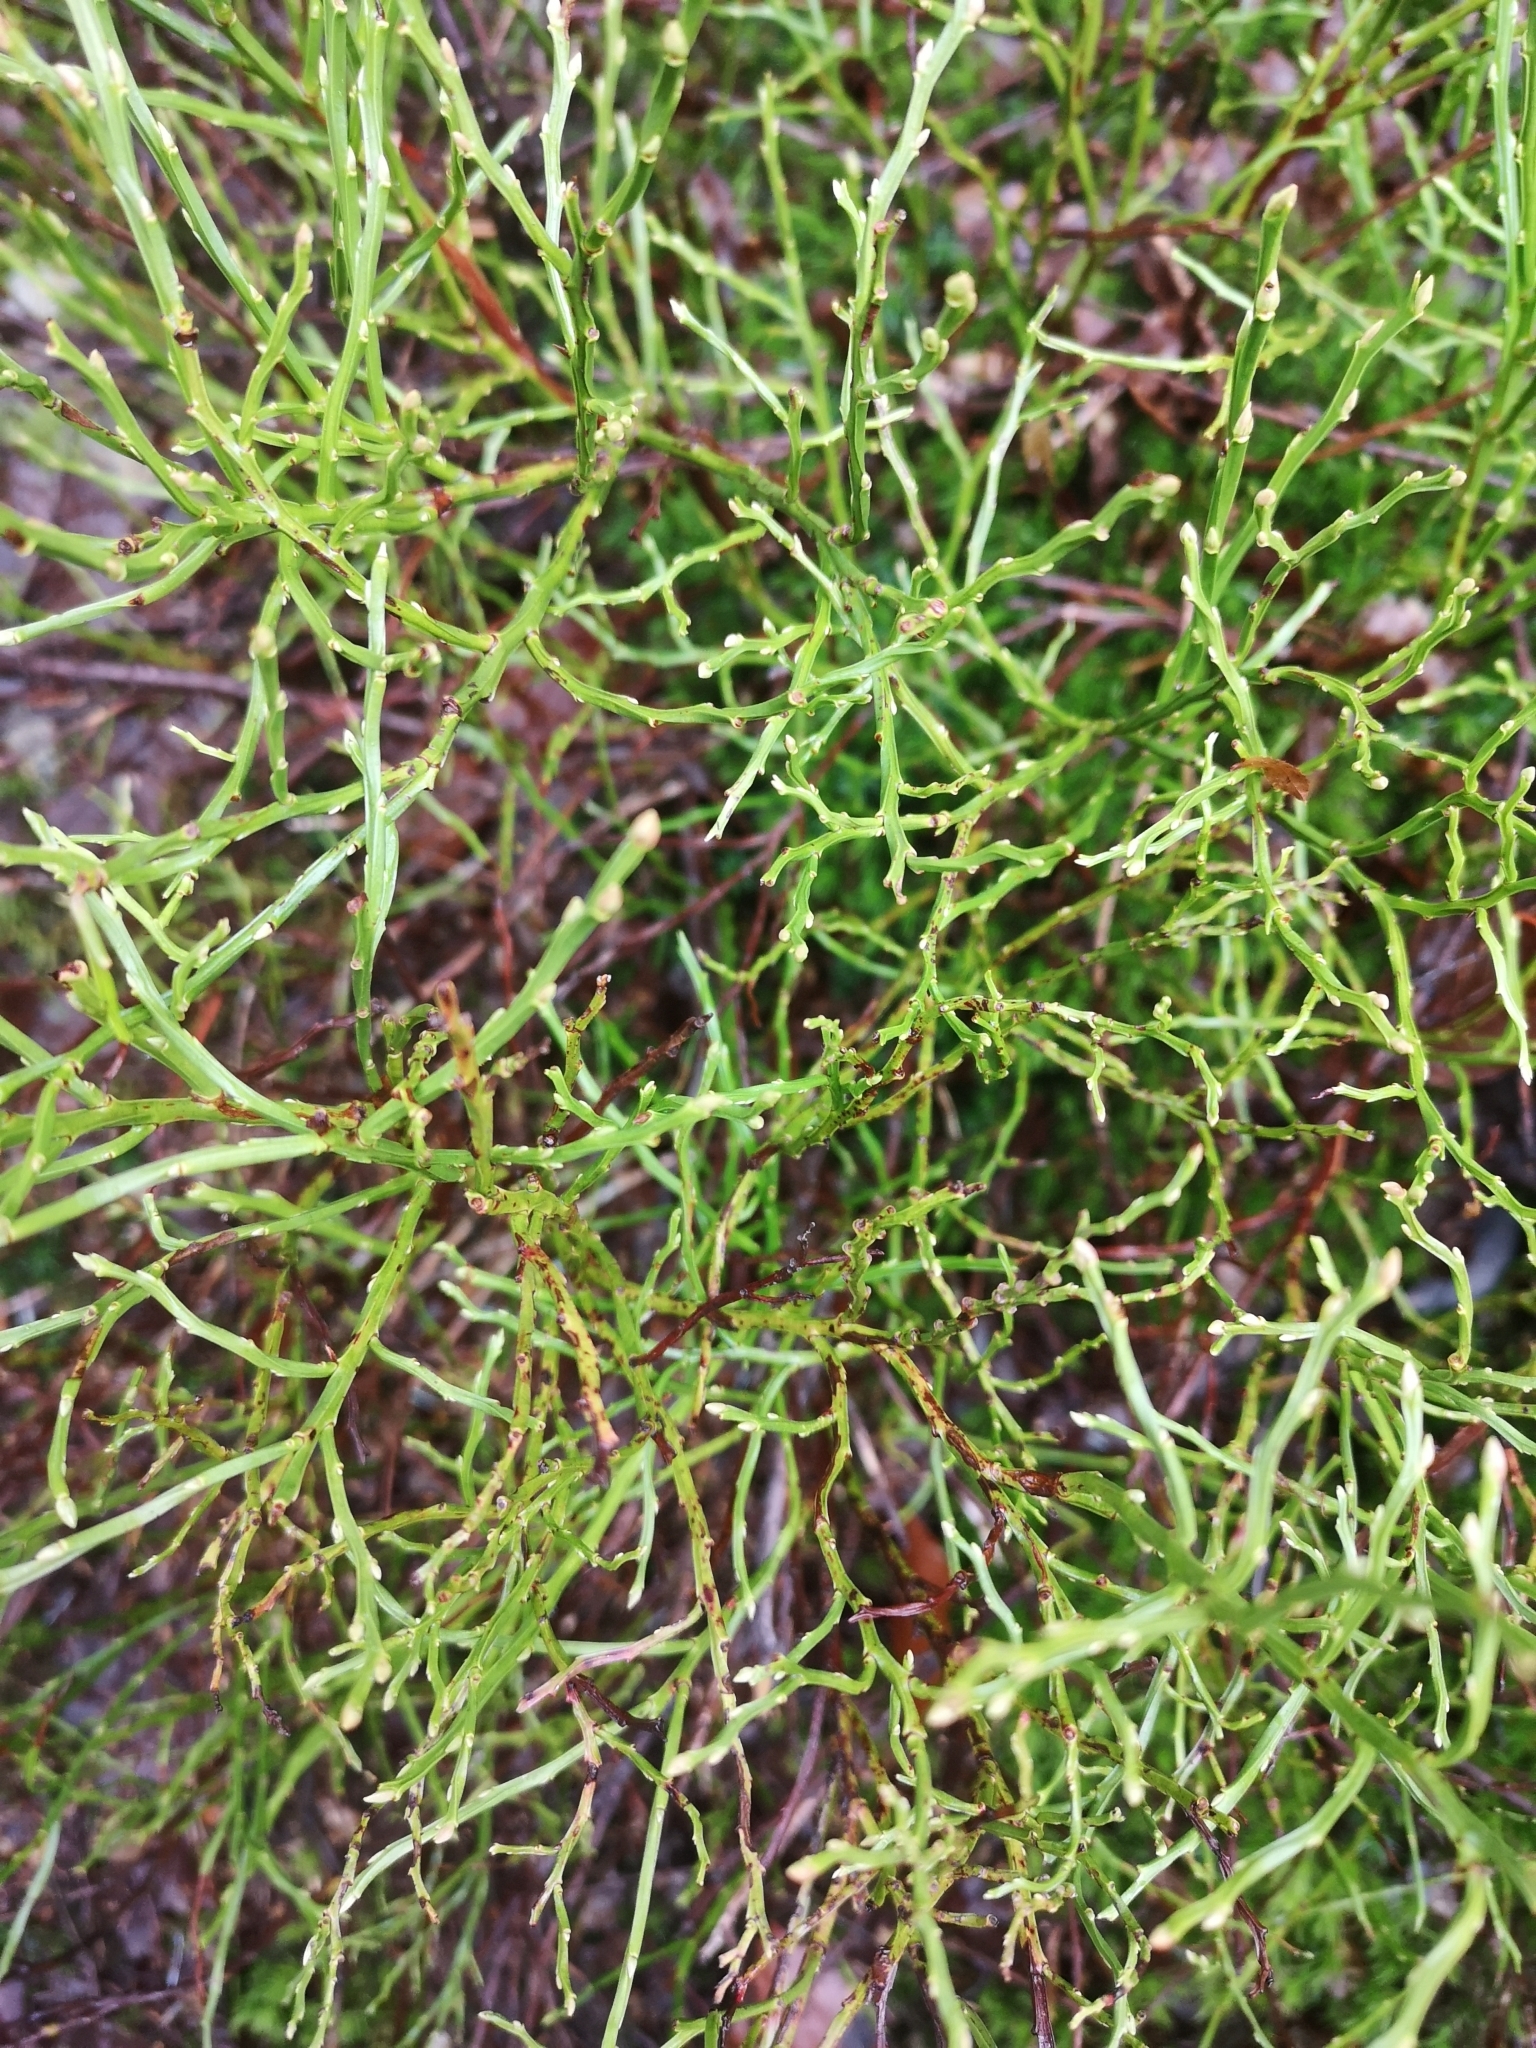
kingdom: Plantae
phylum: Tracheophyta
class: Magnoliopsida
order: Ericales
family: Ericaceae
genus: Vaccinium
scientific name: Vaccinium myrtillus
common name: Bilberry
